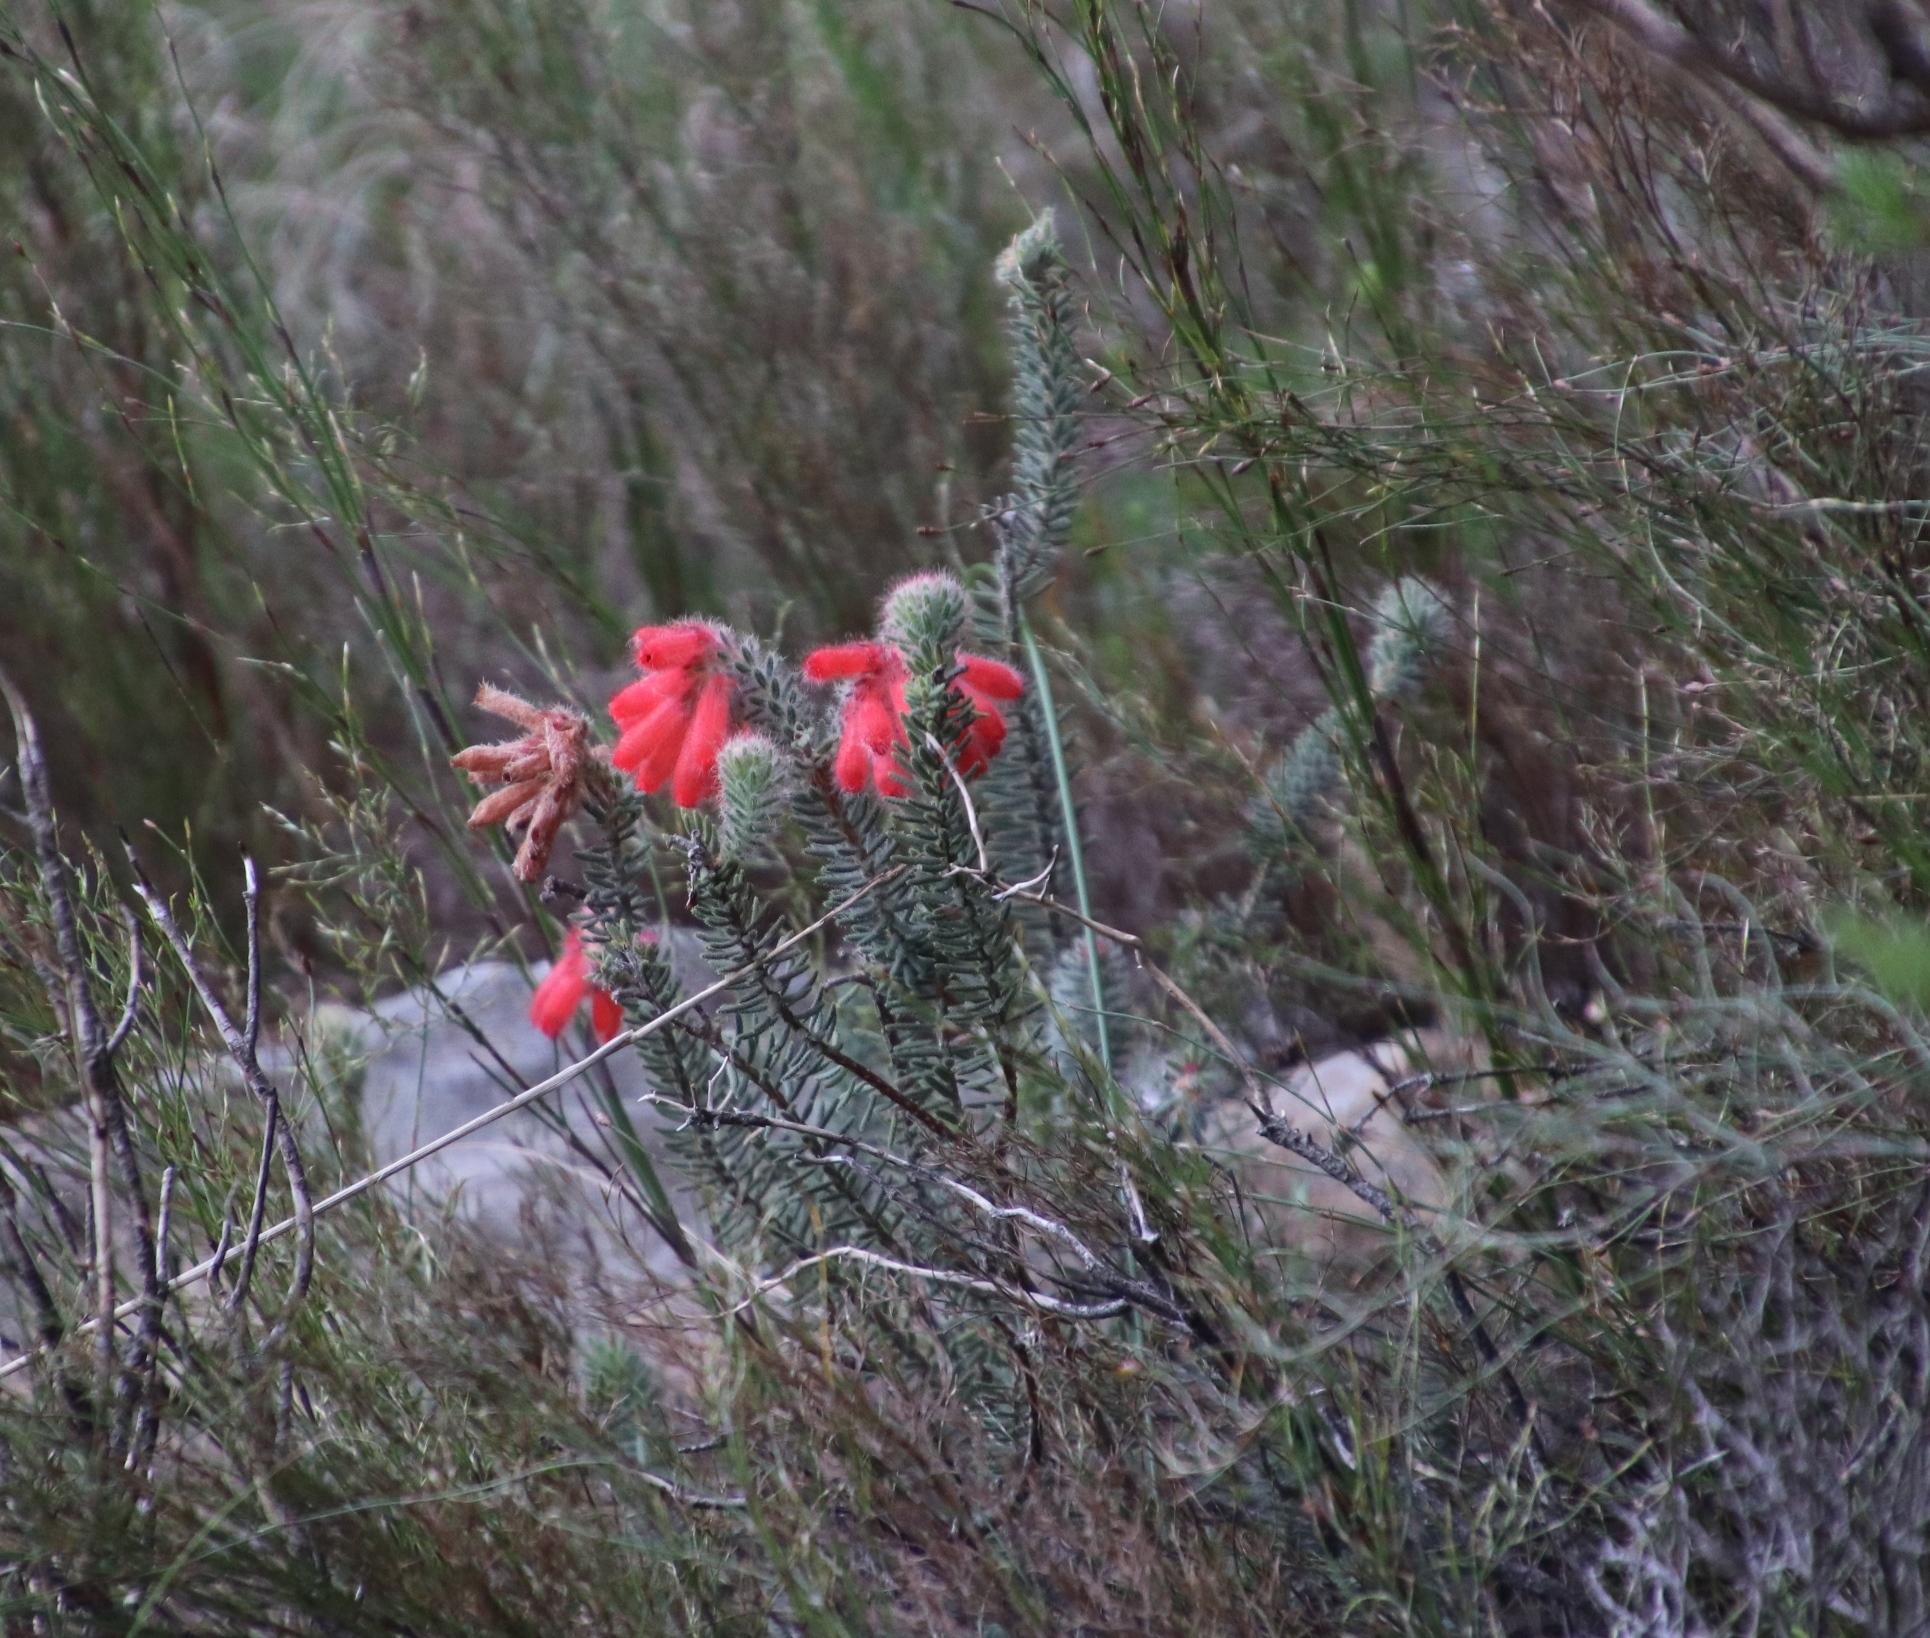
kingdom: Plantae
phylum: Tracheophyta
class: Magnoliopsida
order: Ericales
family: Ericaceae
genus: Erica
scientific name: Erica cerinthoides
